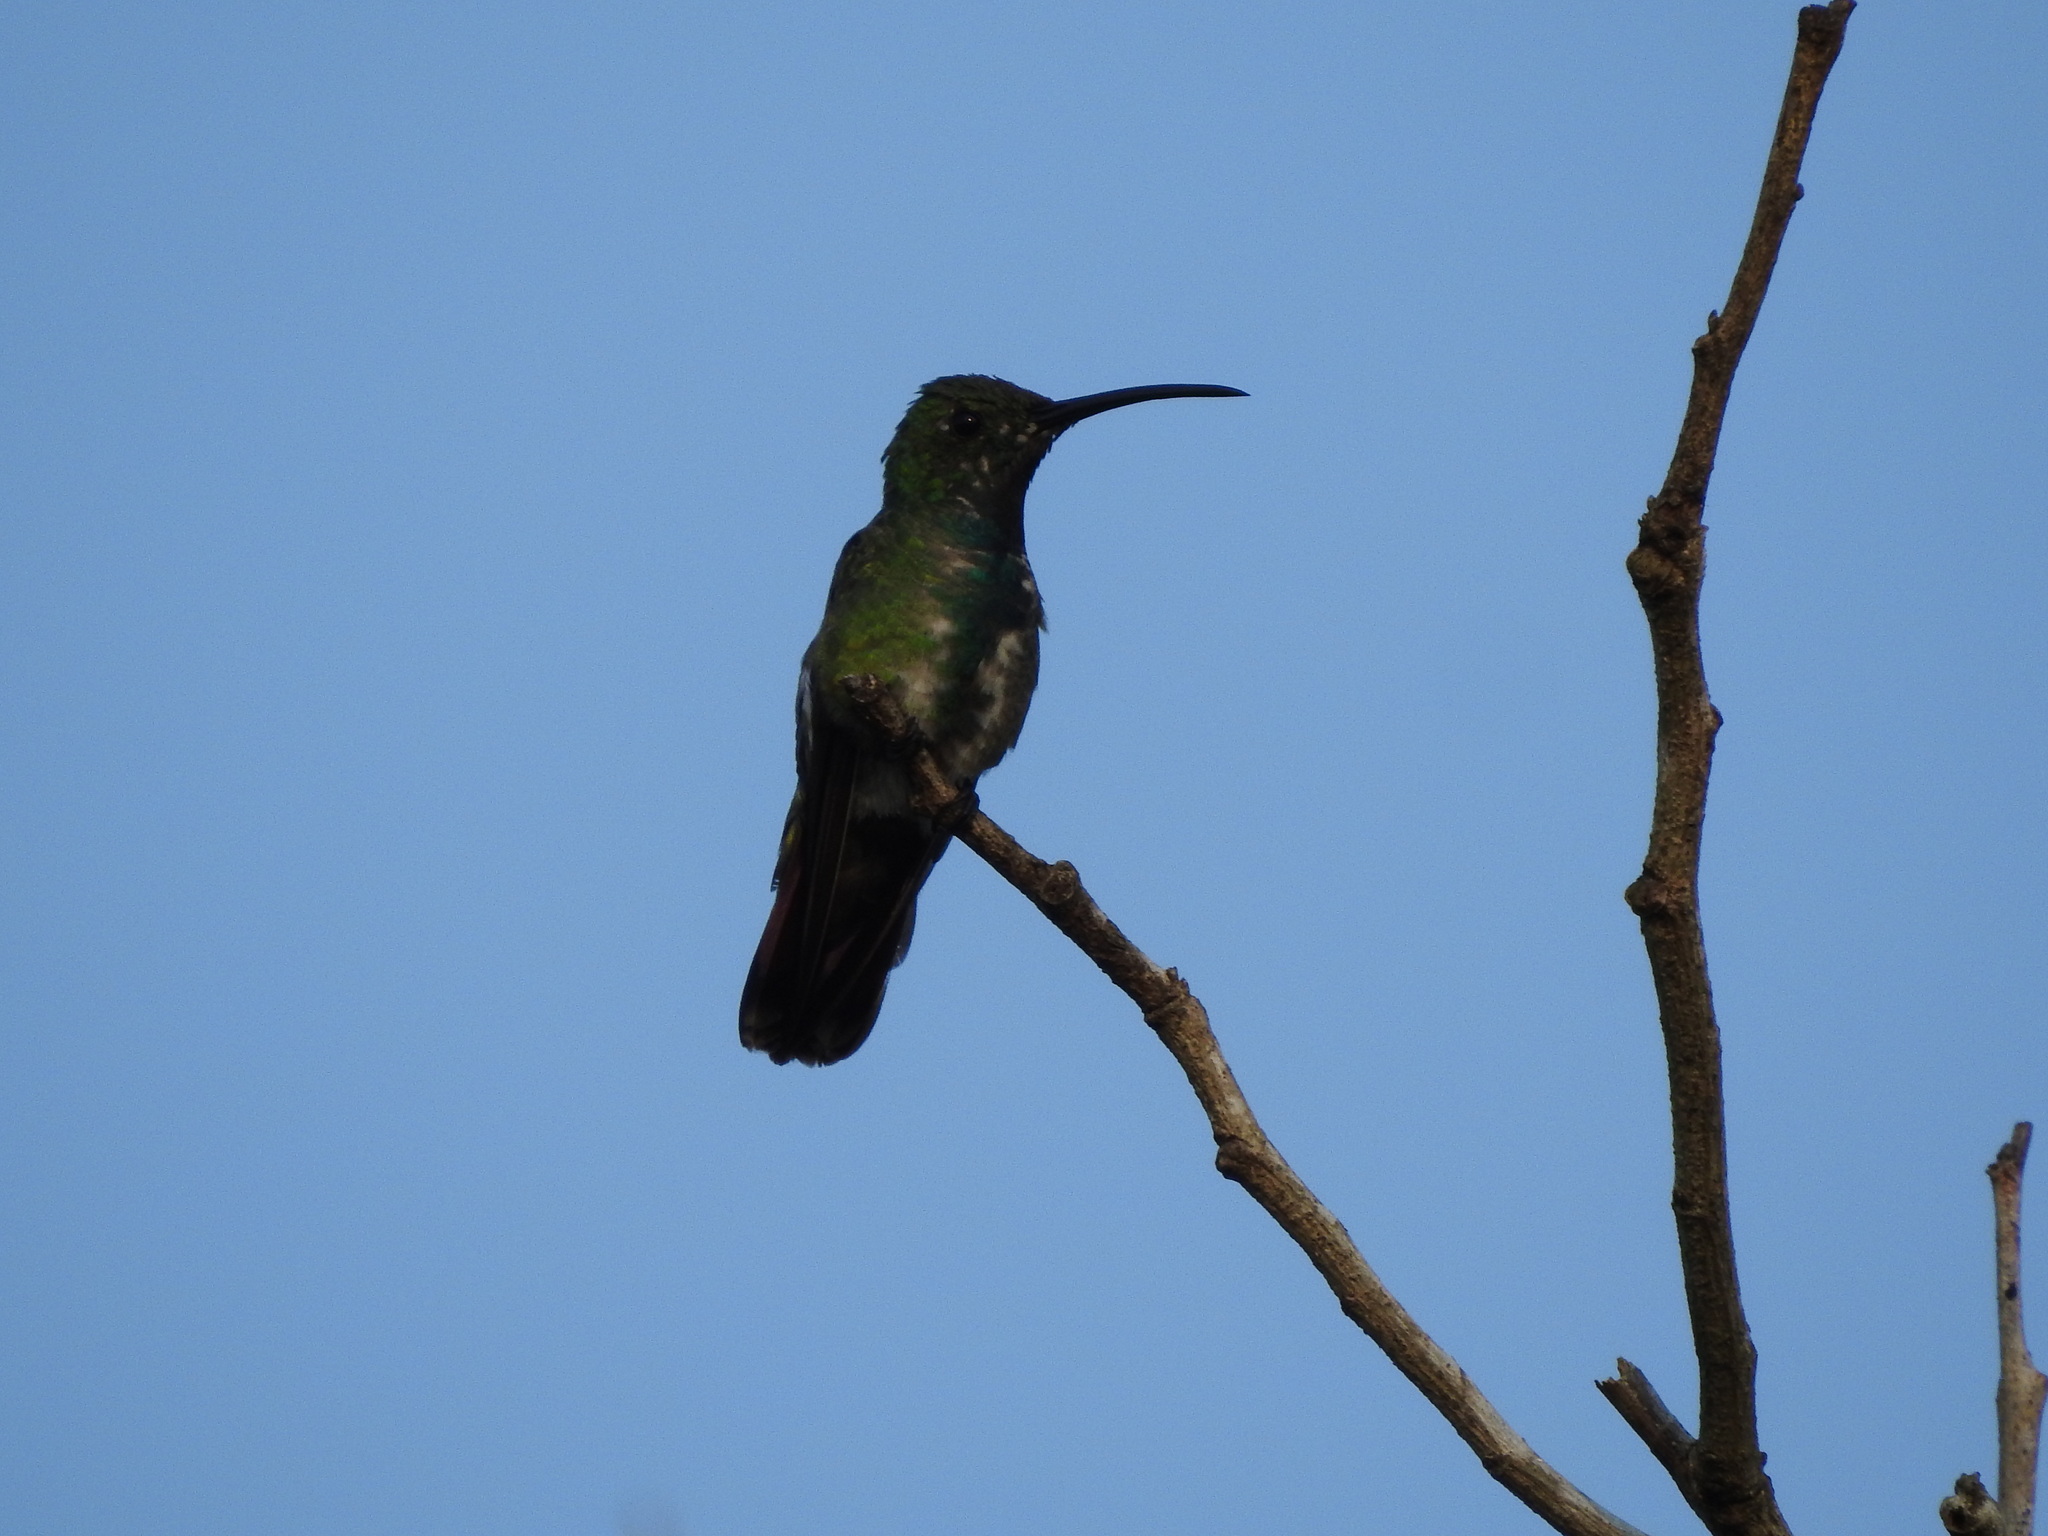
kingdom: Animalia
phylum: Chordata
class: Aves
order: Apodiformes
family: Trochilidae
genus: Anthracothorax
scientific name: Anthracothorax prevostii
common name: Green-breasted mango
